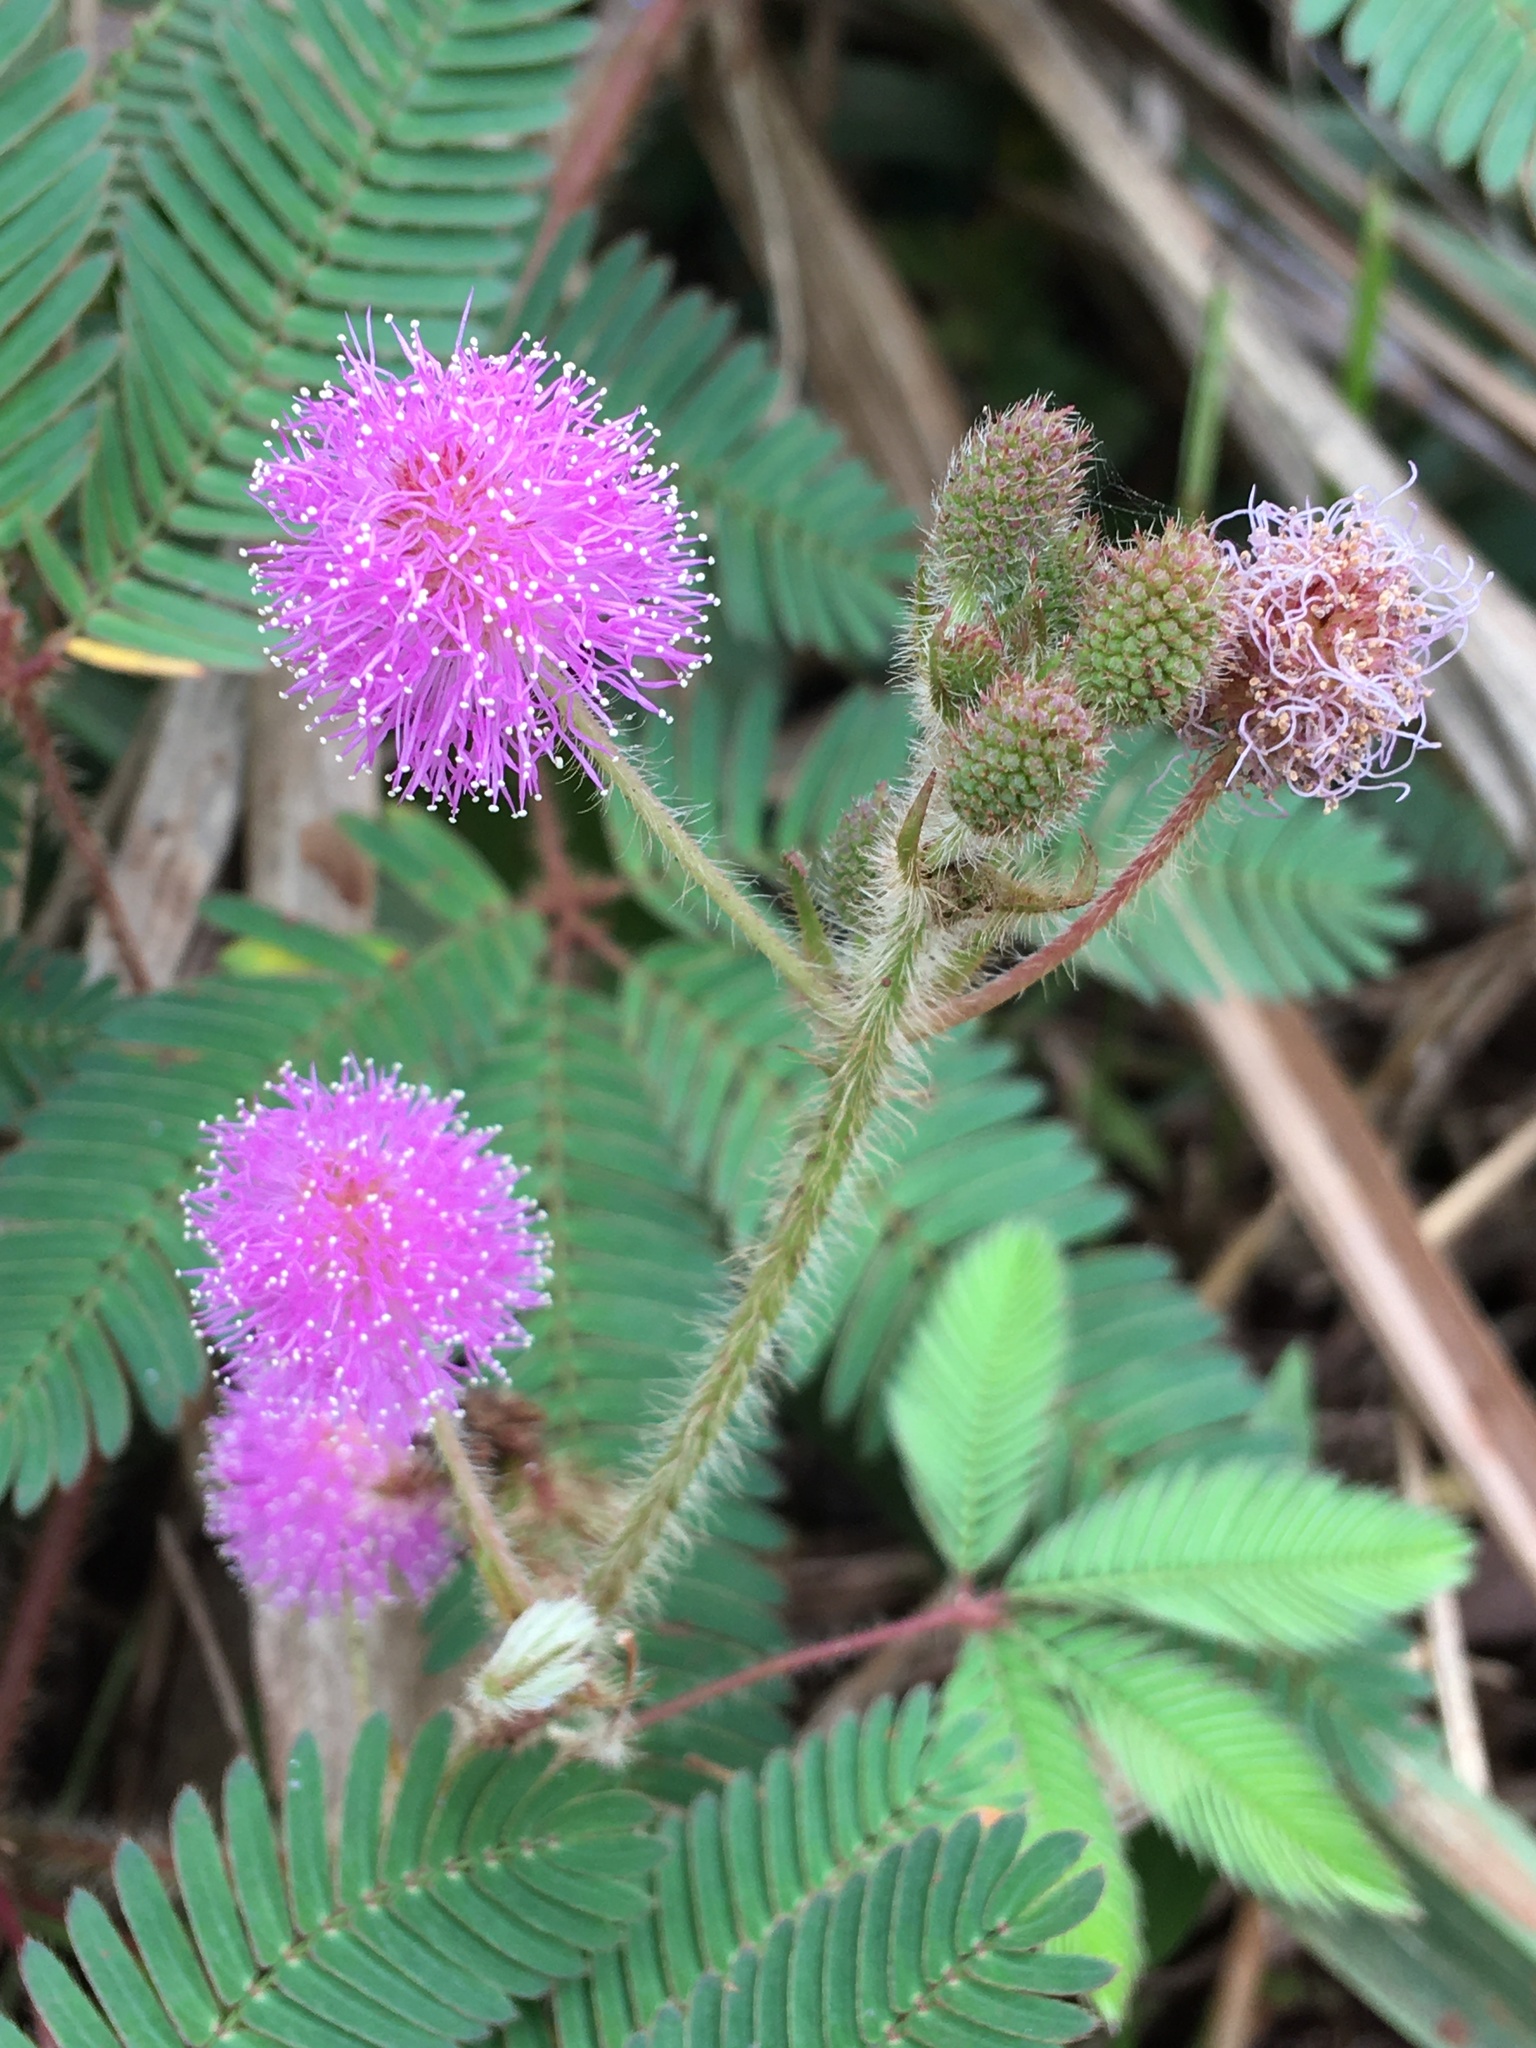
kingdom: Plantae
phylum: Tracheophyta
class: Magnoliopsida
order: Fabales
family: Fabaceae
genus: Mimosa
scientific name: Mimosa pudica
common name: Sensitive plant
